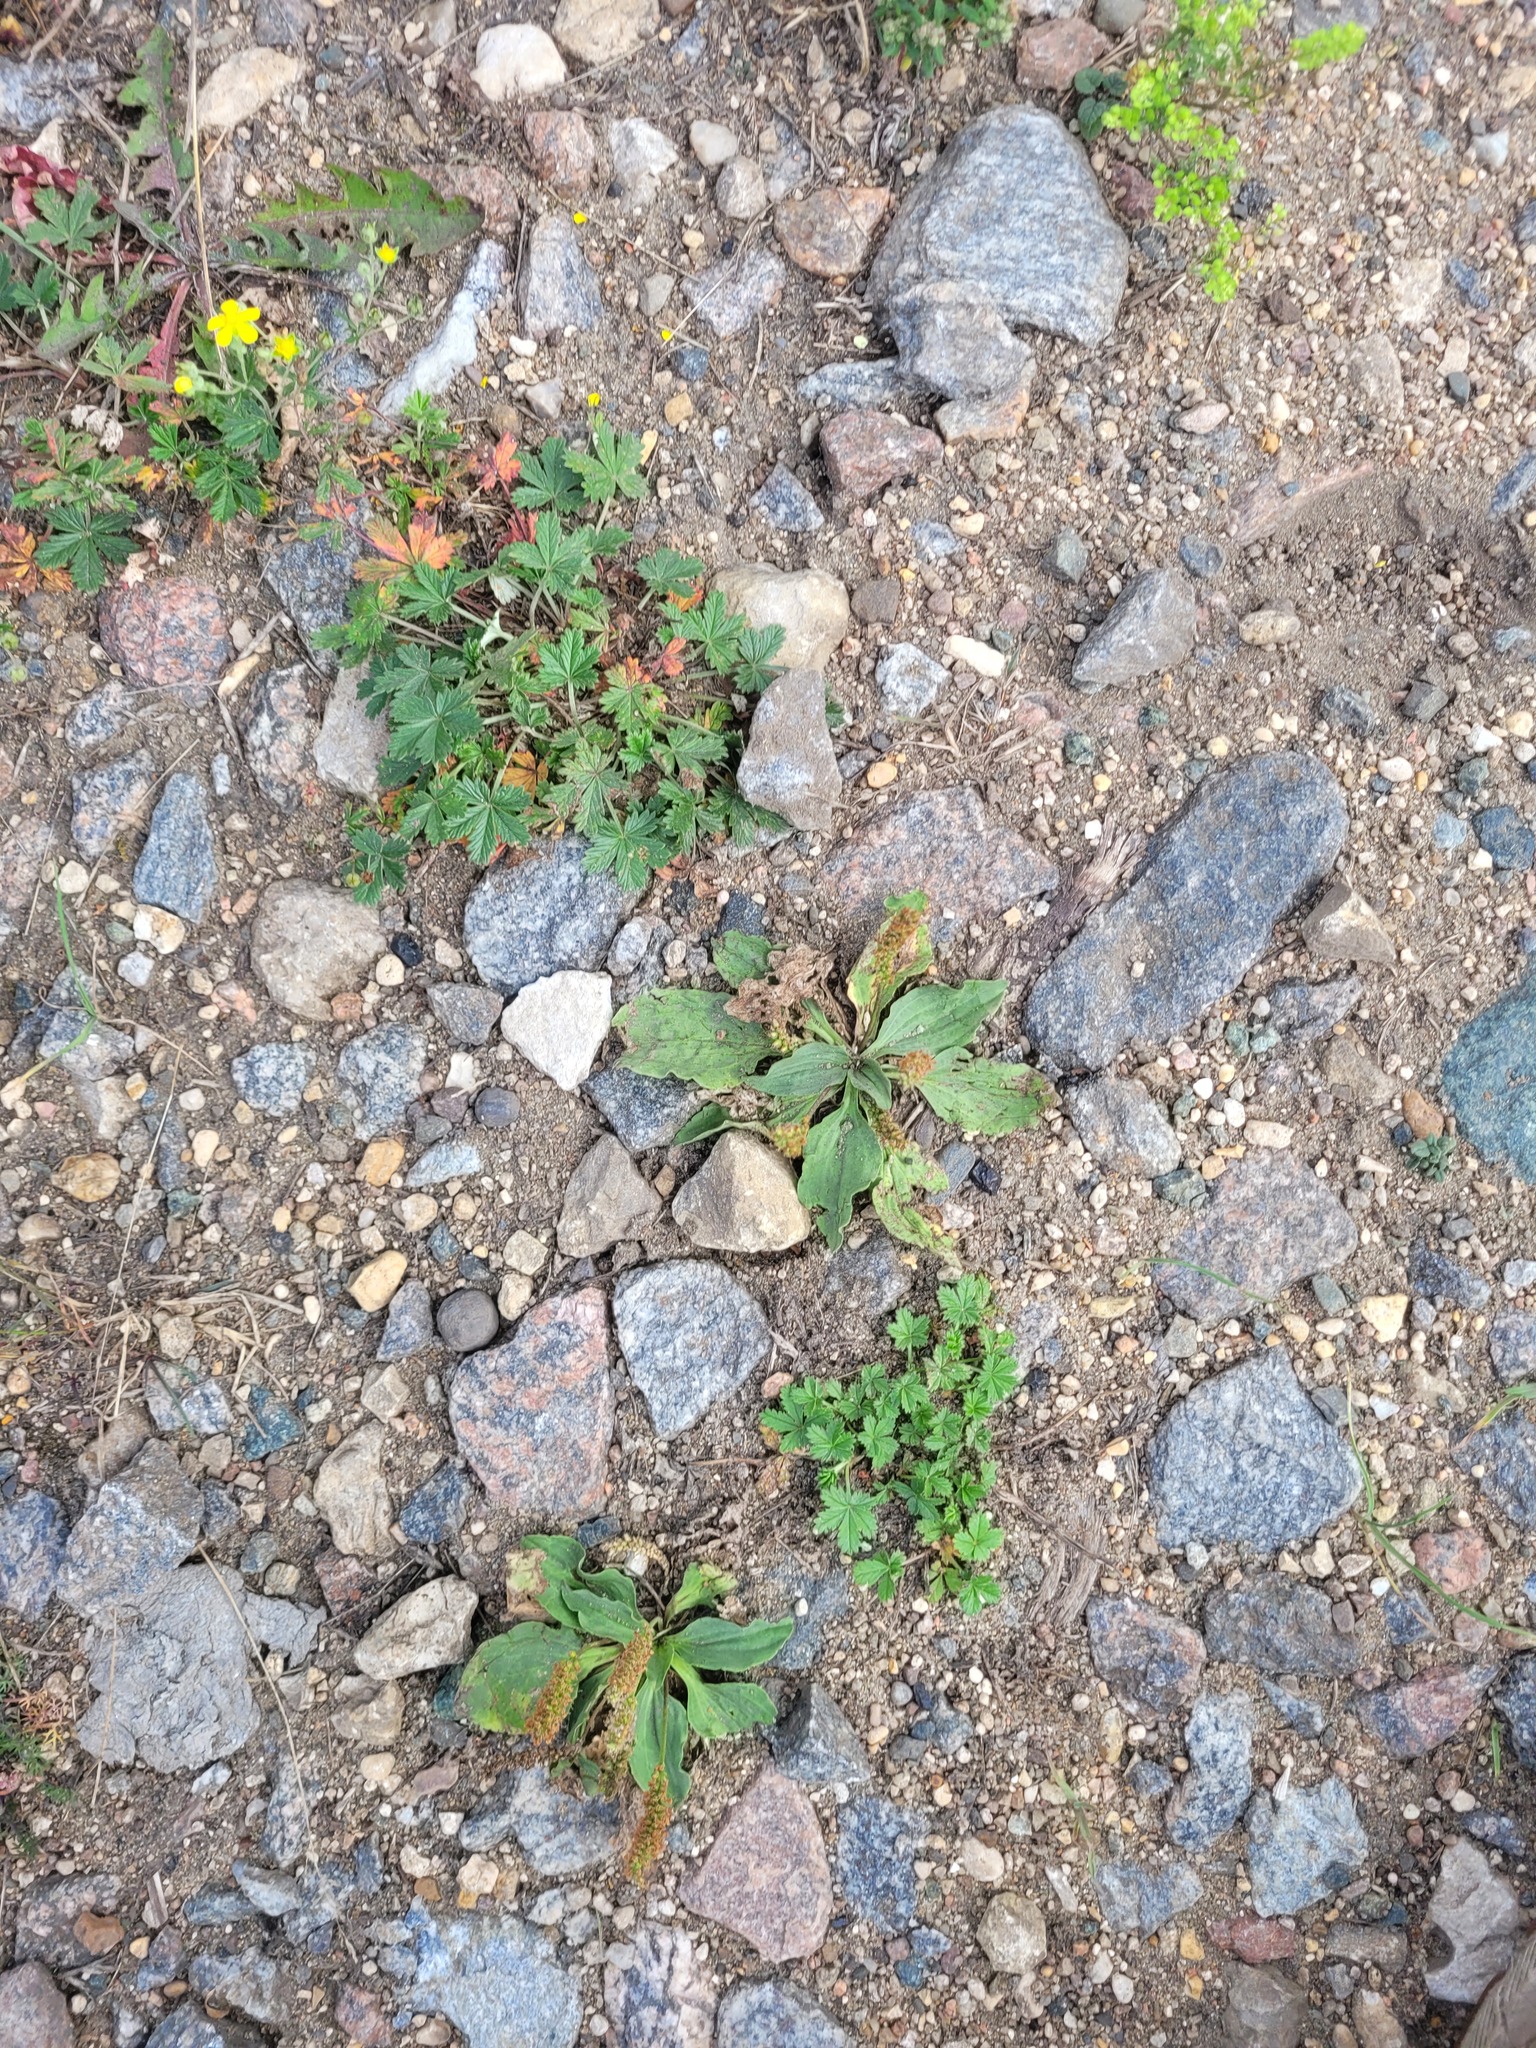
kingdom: Plantae
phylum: Tracheophyta
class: Magnoliopsida
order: Lamiales
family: Plantaginaceae
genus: Plantago
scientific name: Plantago major
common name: Common plantain
